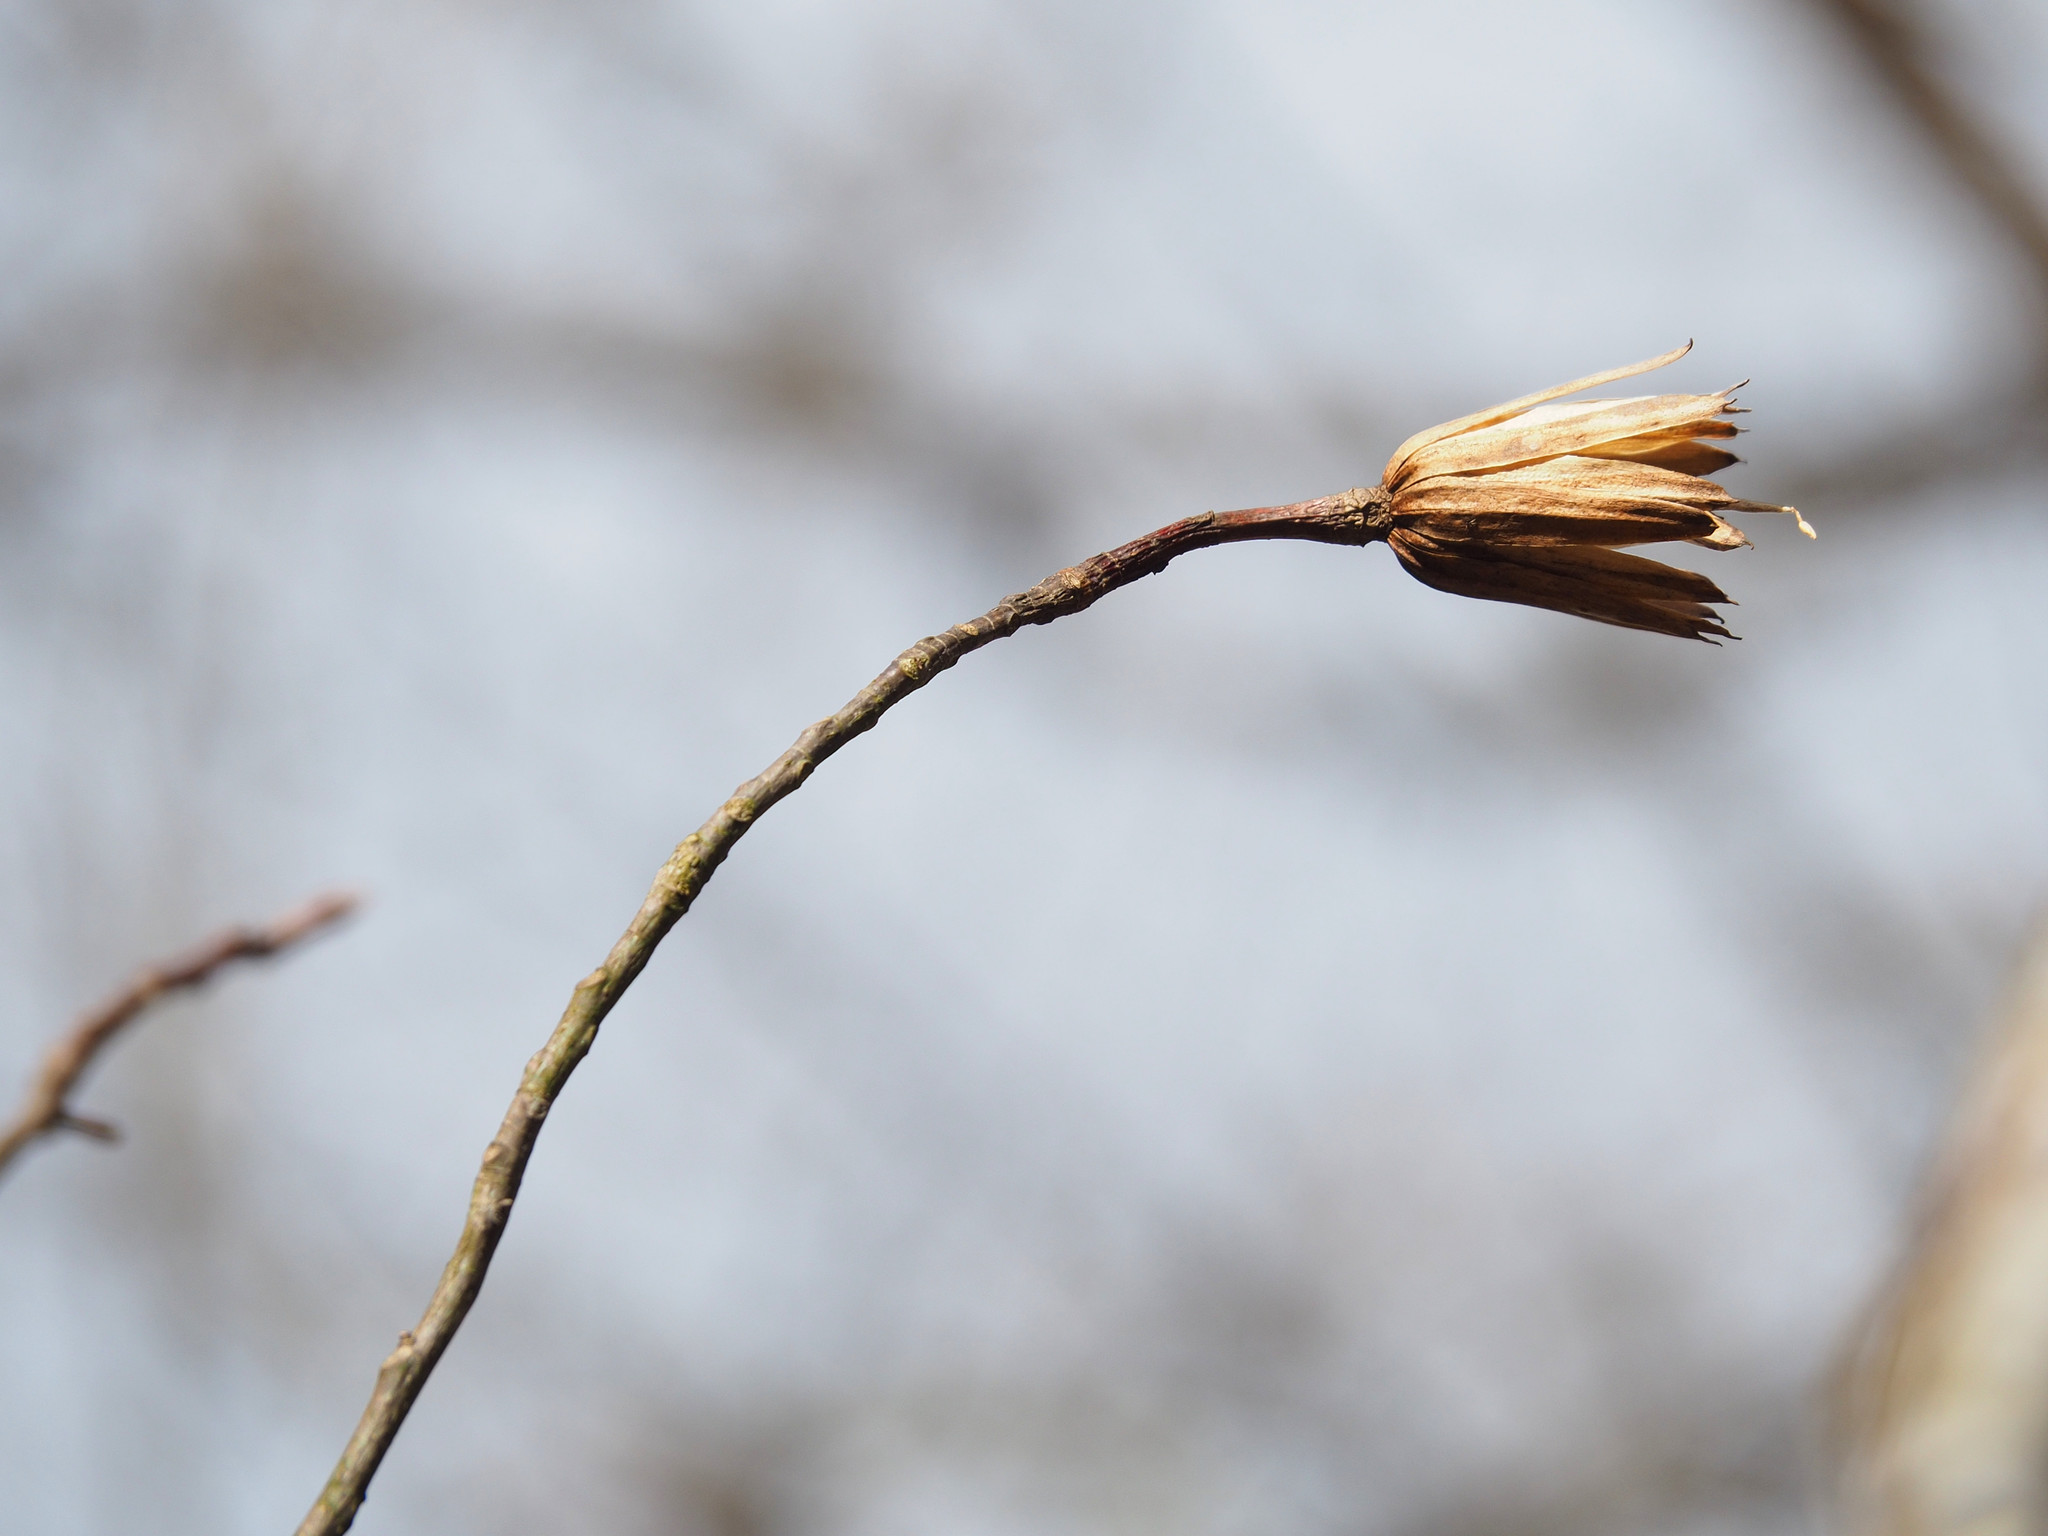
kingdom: Plantae
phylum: Tracheophyta
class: Magnoliopsida
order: Magnoliales
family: Magnoliaceae
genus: Liriodendron
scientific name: Liriodendron tulipifera
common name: Tulip tree
